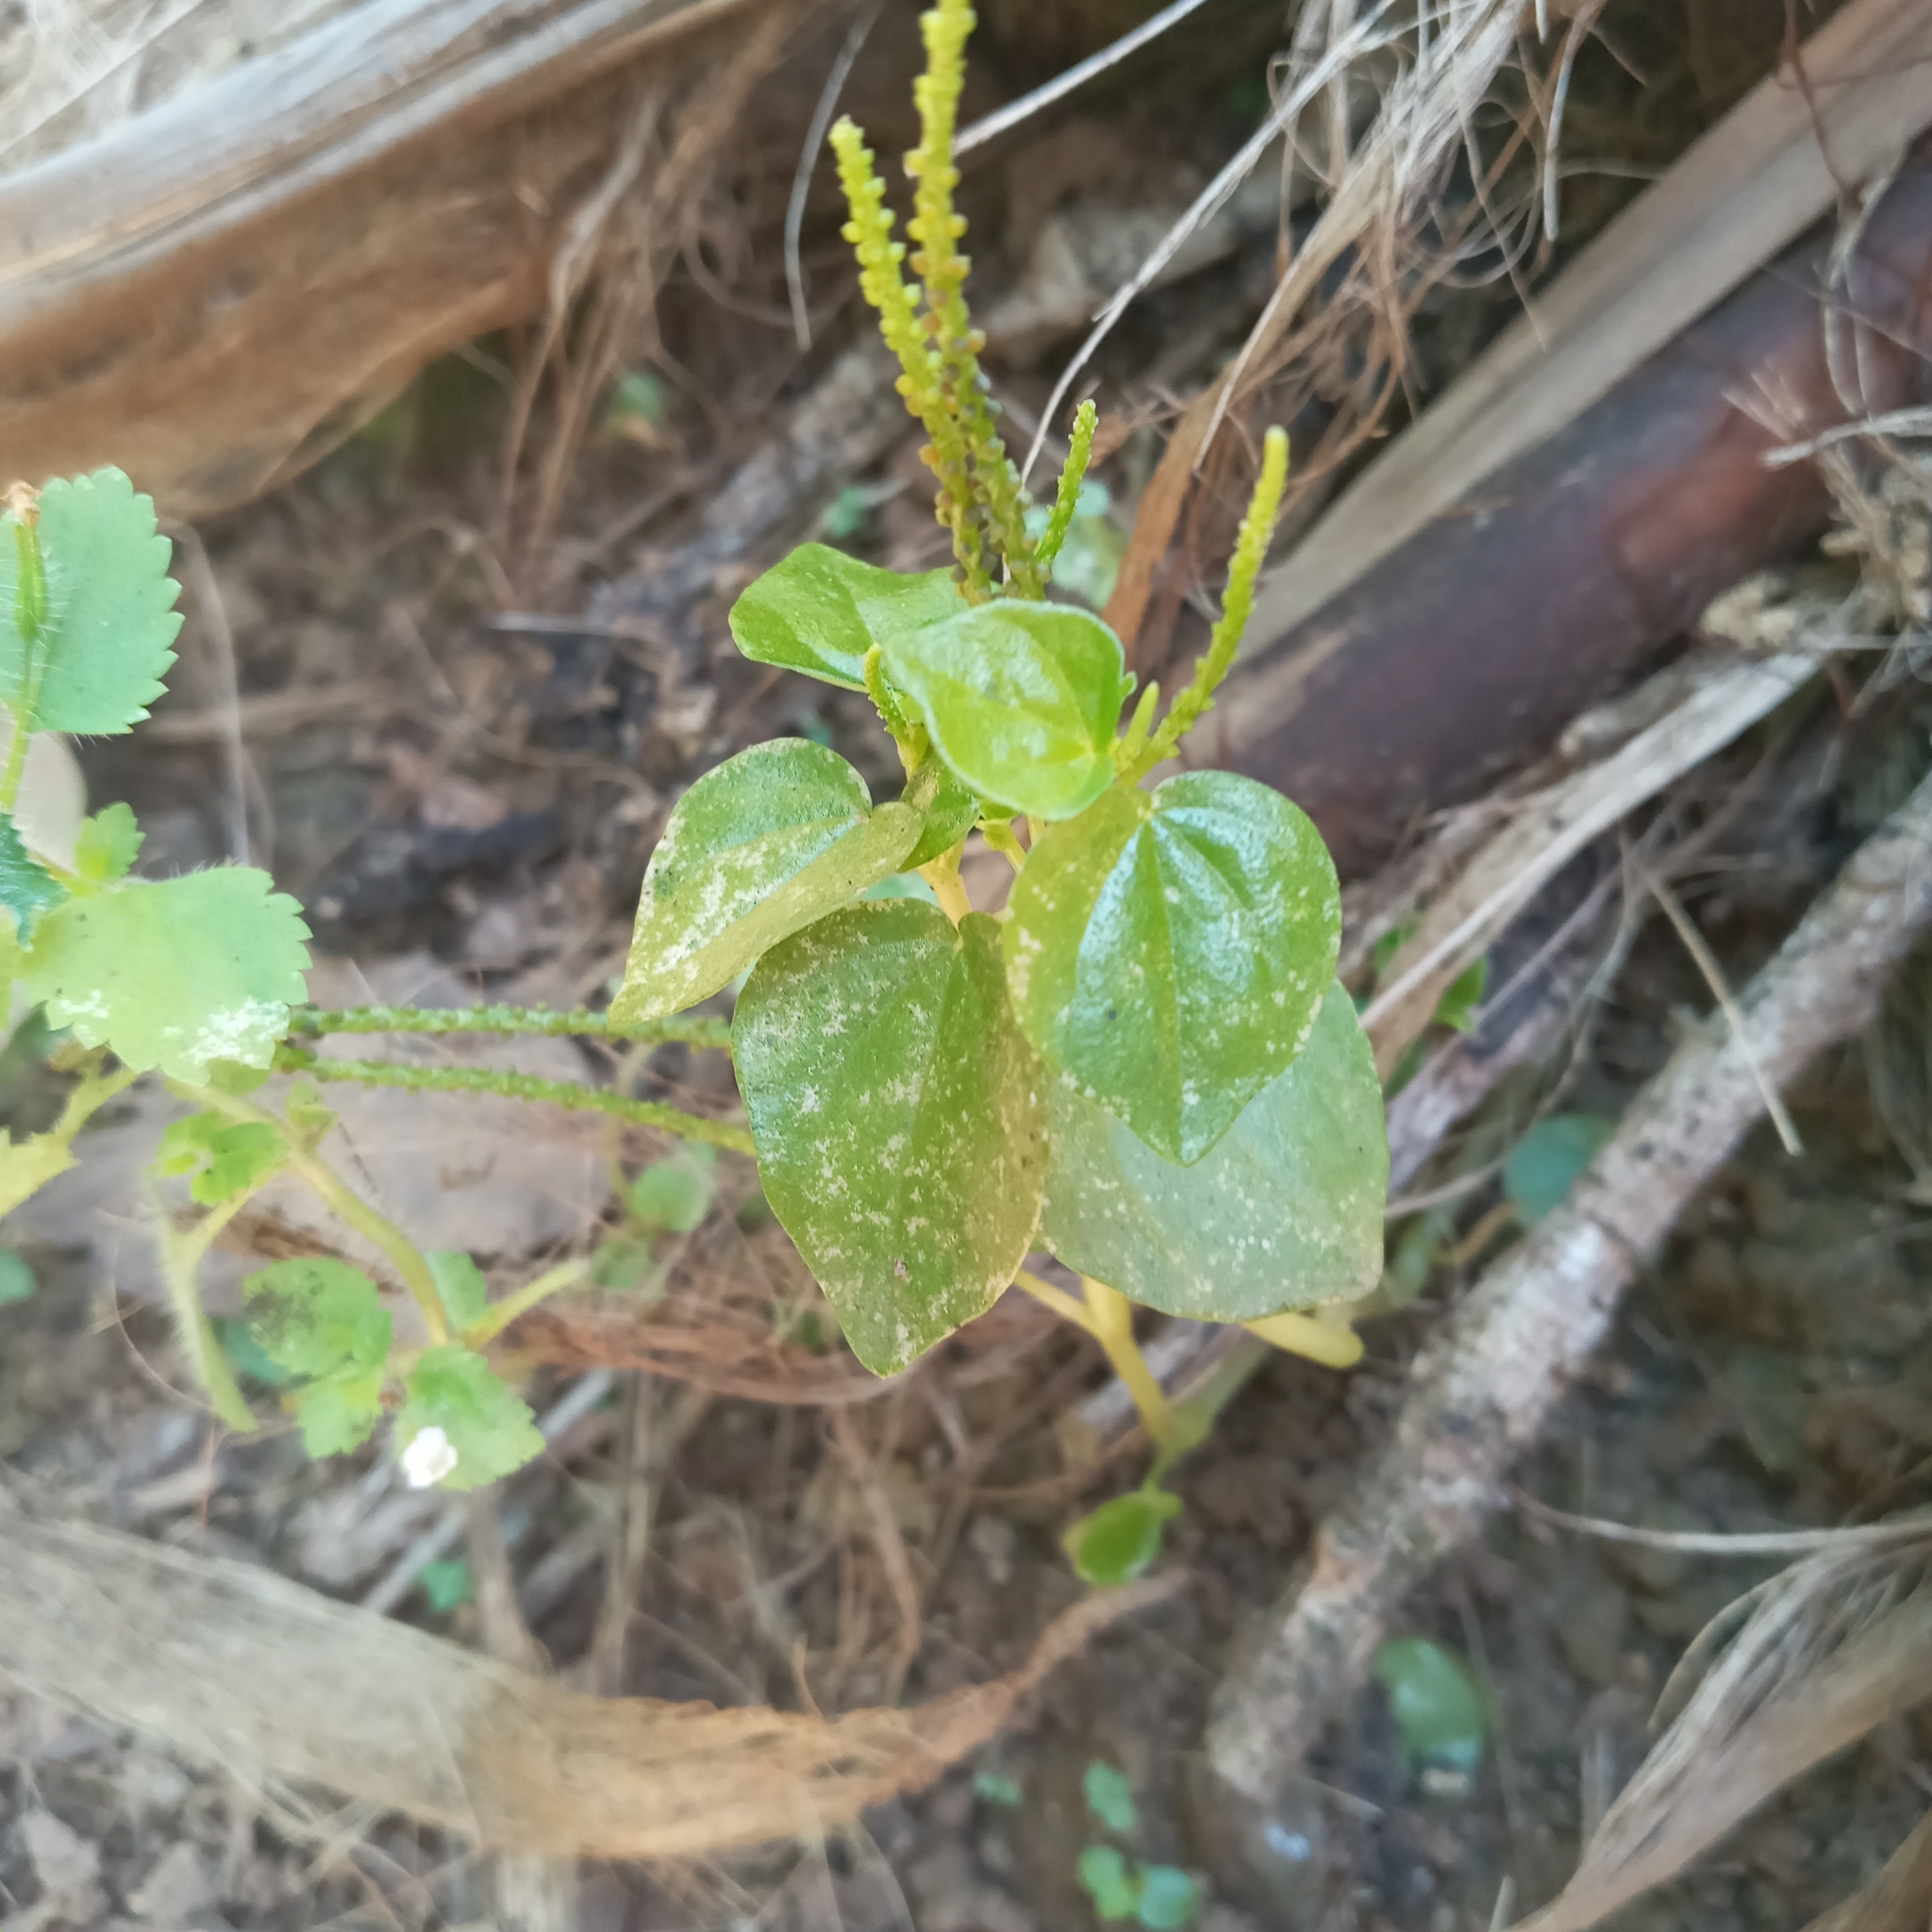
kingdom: Plantae
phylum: Tracheophyta
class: Magnoliopsida
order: Piperales
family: Piperaceae
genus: Peperomia
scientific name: Peperomia pellucida
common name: Man to man
